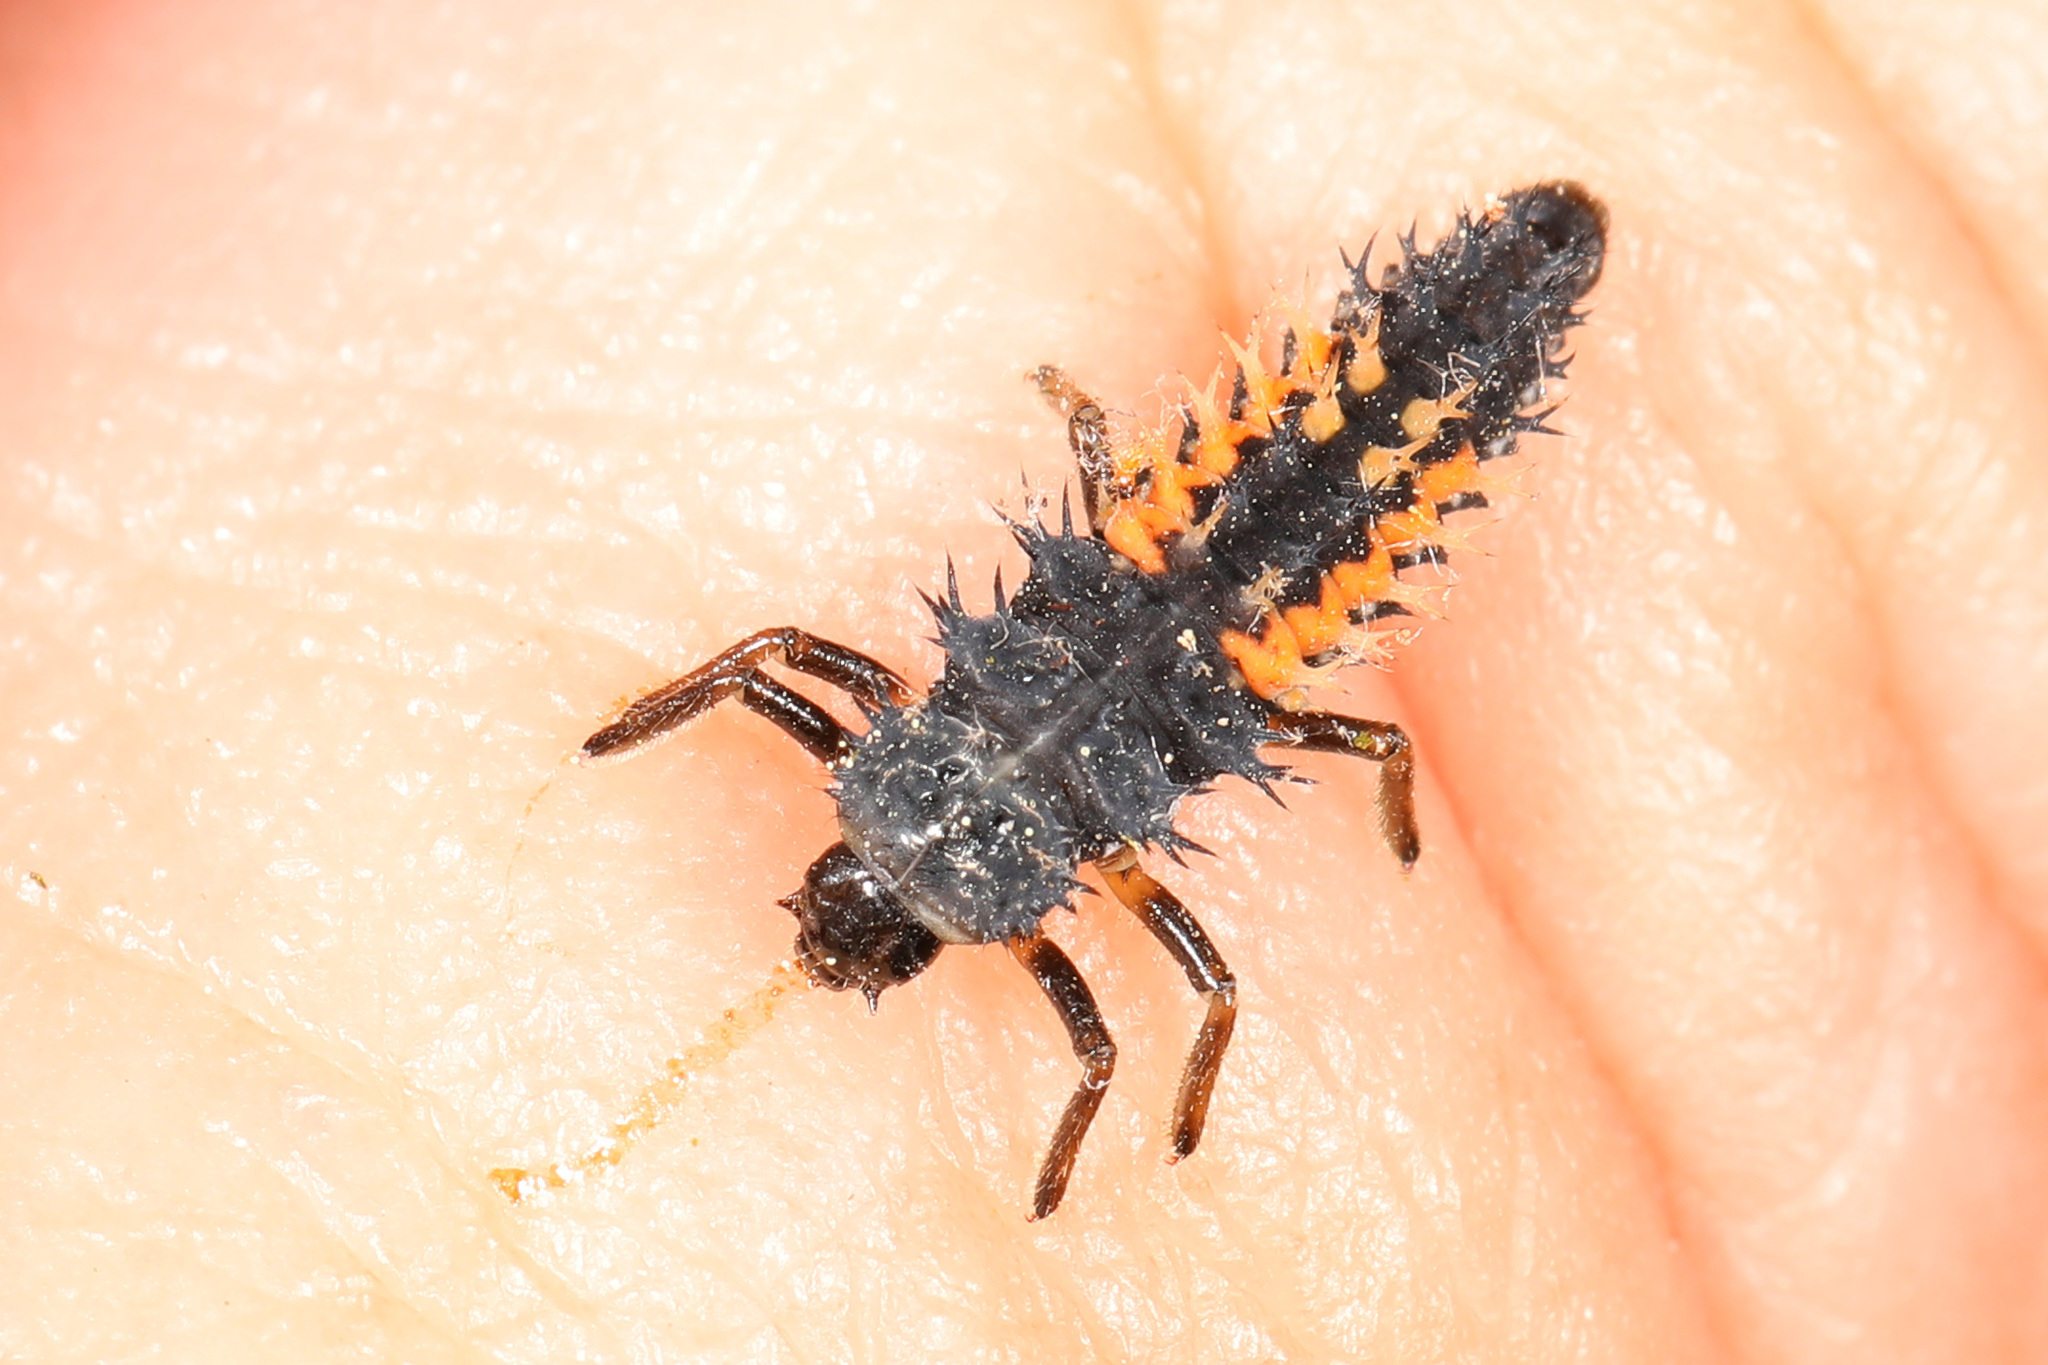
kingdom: Animalia
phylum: Arthropoda
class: Insecta
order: Coleoptera
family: Coccinellidae
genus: Harmonia
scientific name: Harmonia axyridis
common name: Harlequin ladybird
